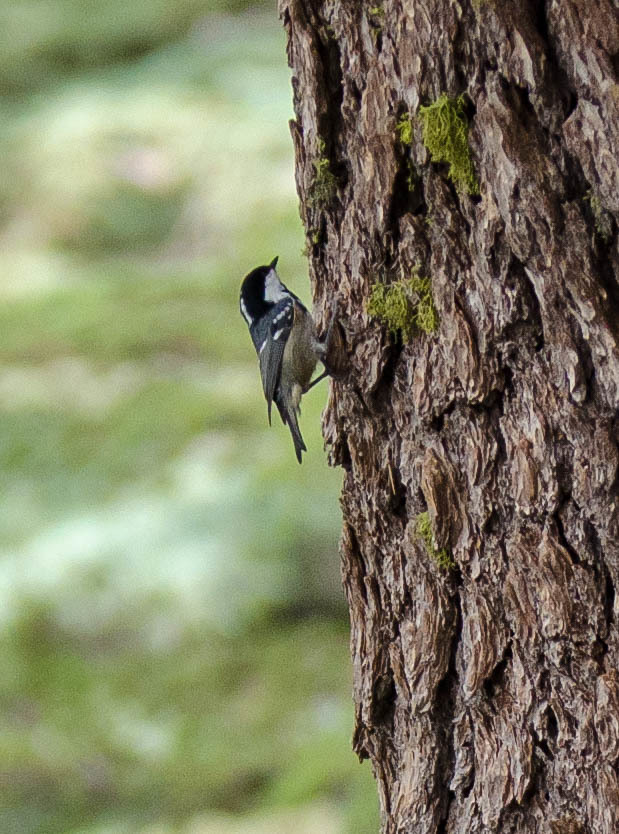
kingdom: Animalia
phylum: Chordata
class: Aves
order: Passeriformes
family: Paridae
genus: Periparus
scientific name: Periparus ater
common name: Coal tit
